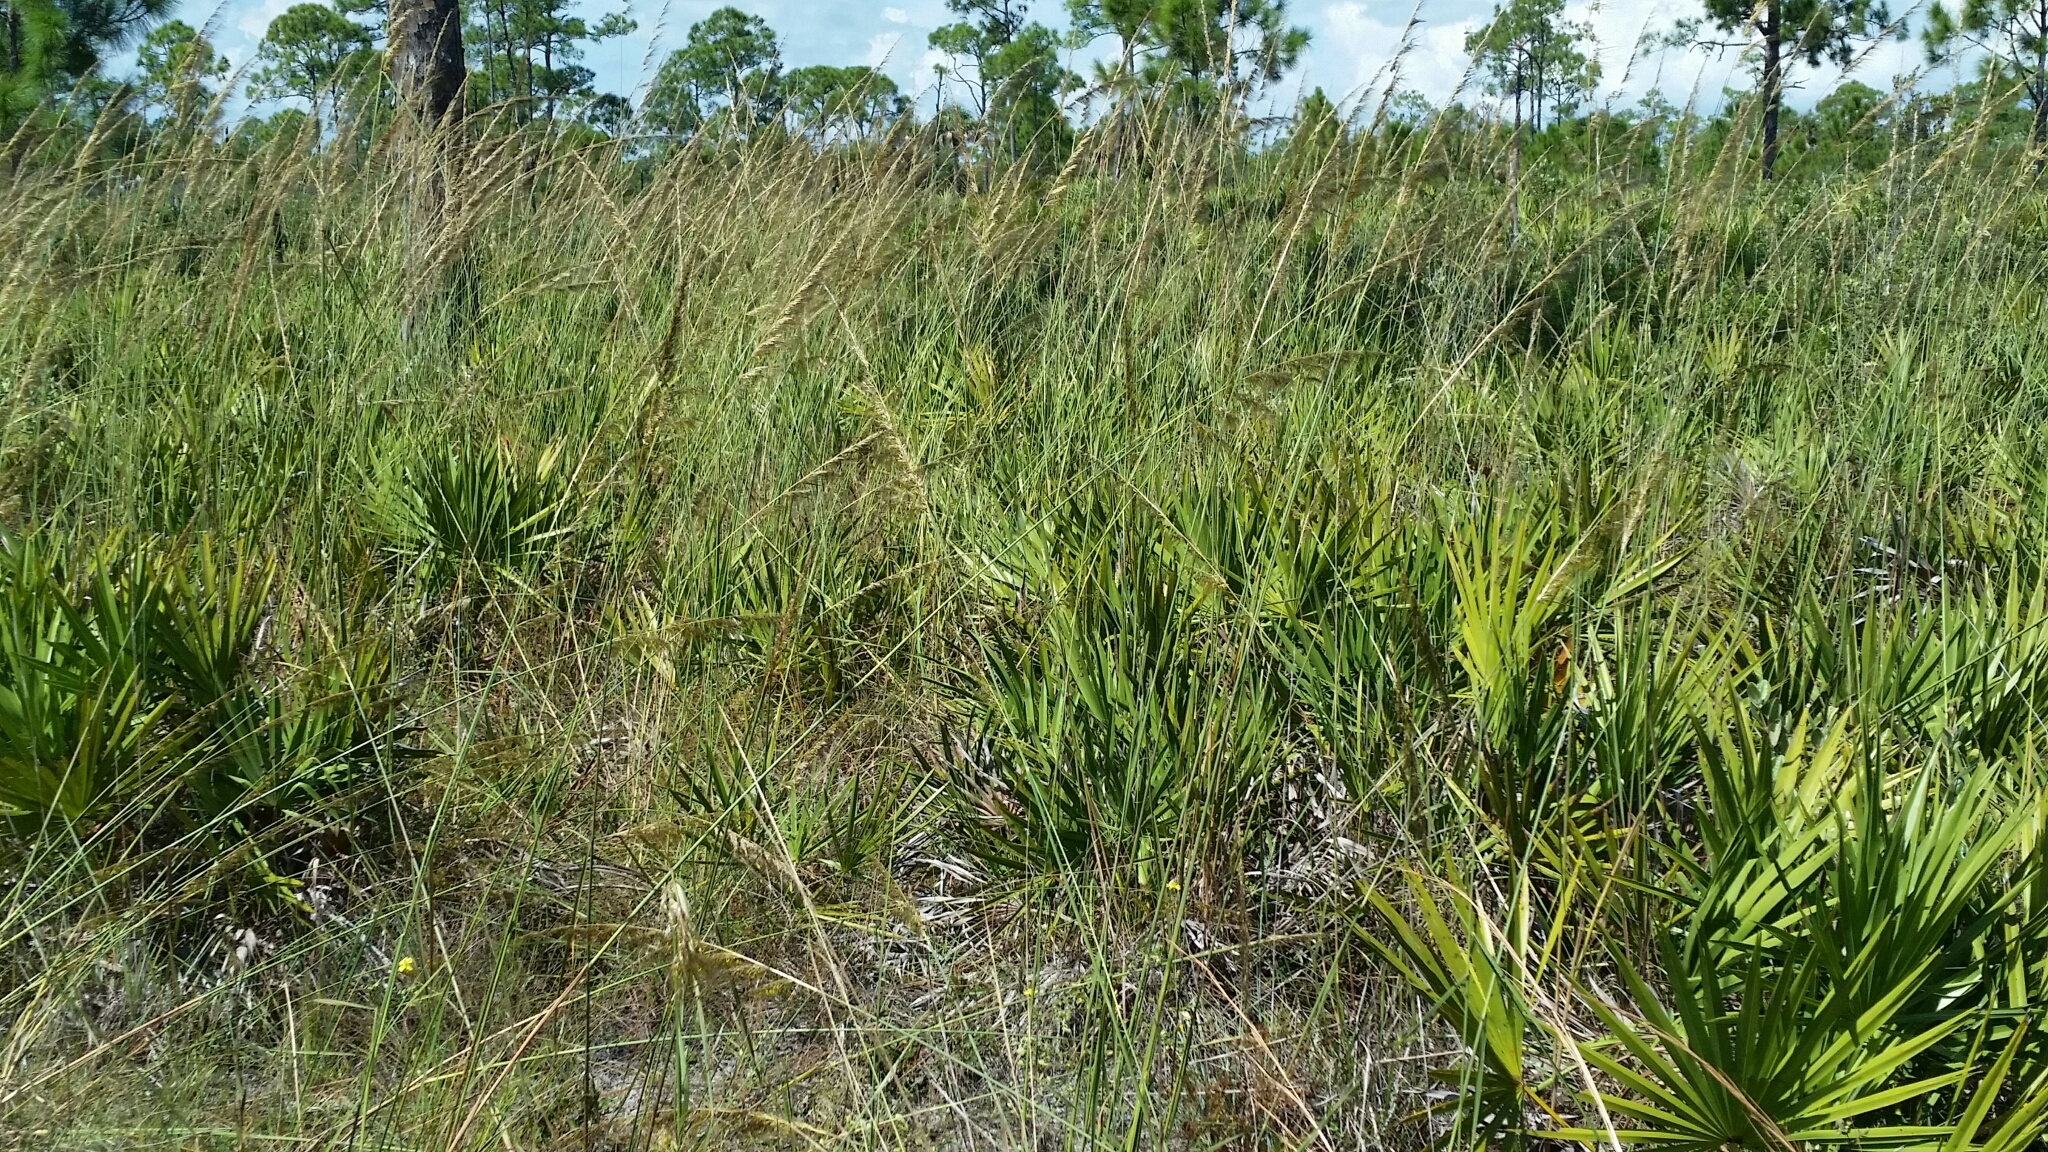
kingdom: Plantae
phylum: Tracheophyta
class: Liliopsida
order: Poales
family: Poaceae
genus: Sorghastrum
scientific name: Sorghastrum secundum
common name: Lopsided indian grass
